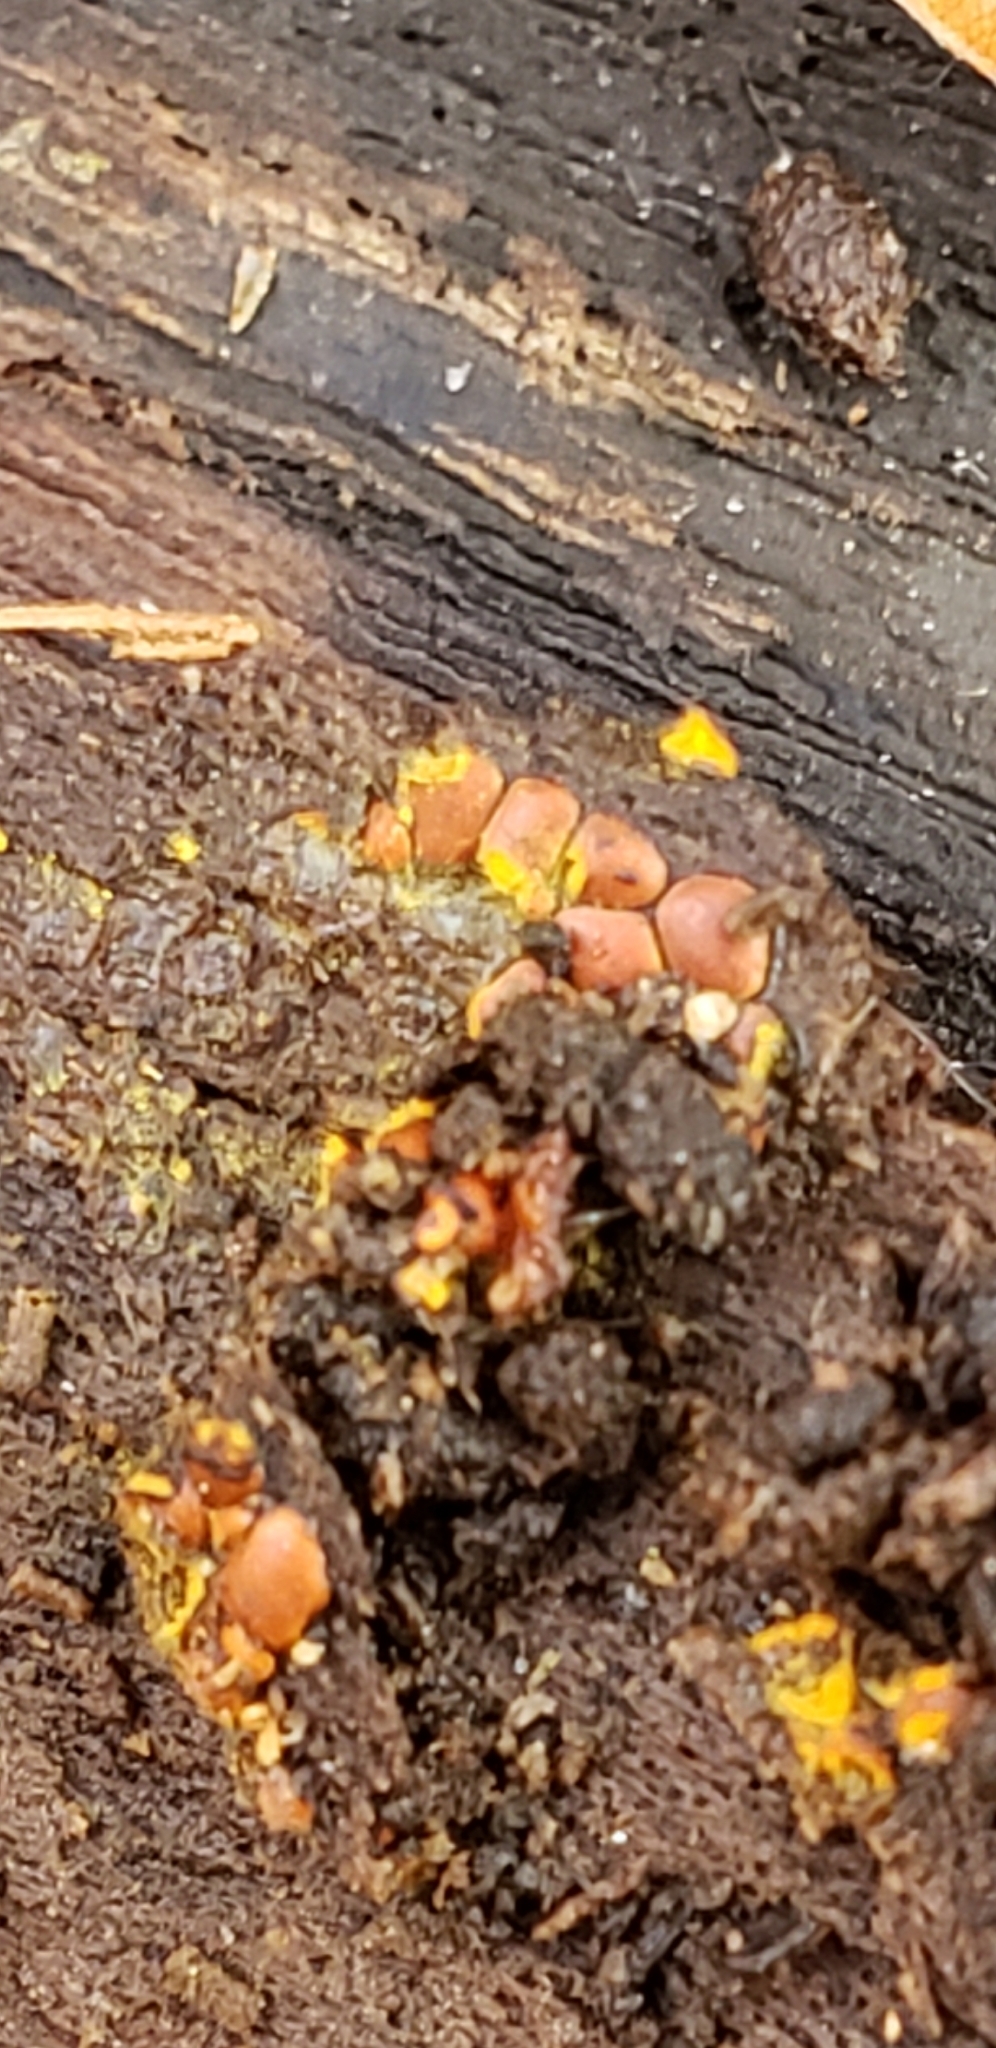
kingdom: Protozoa
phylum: Mycetozoa
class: Myxomycetes
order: Trichiales
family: Trichiaceae
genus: Perichaena
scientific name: Perichaena depressa
